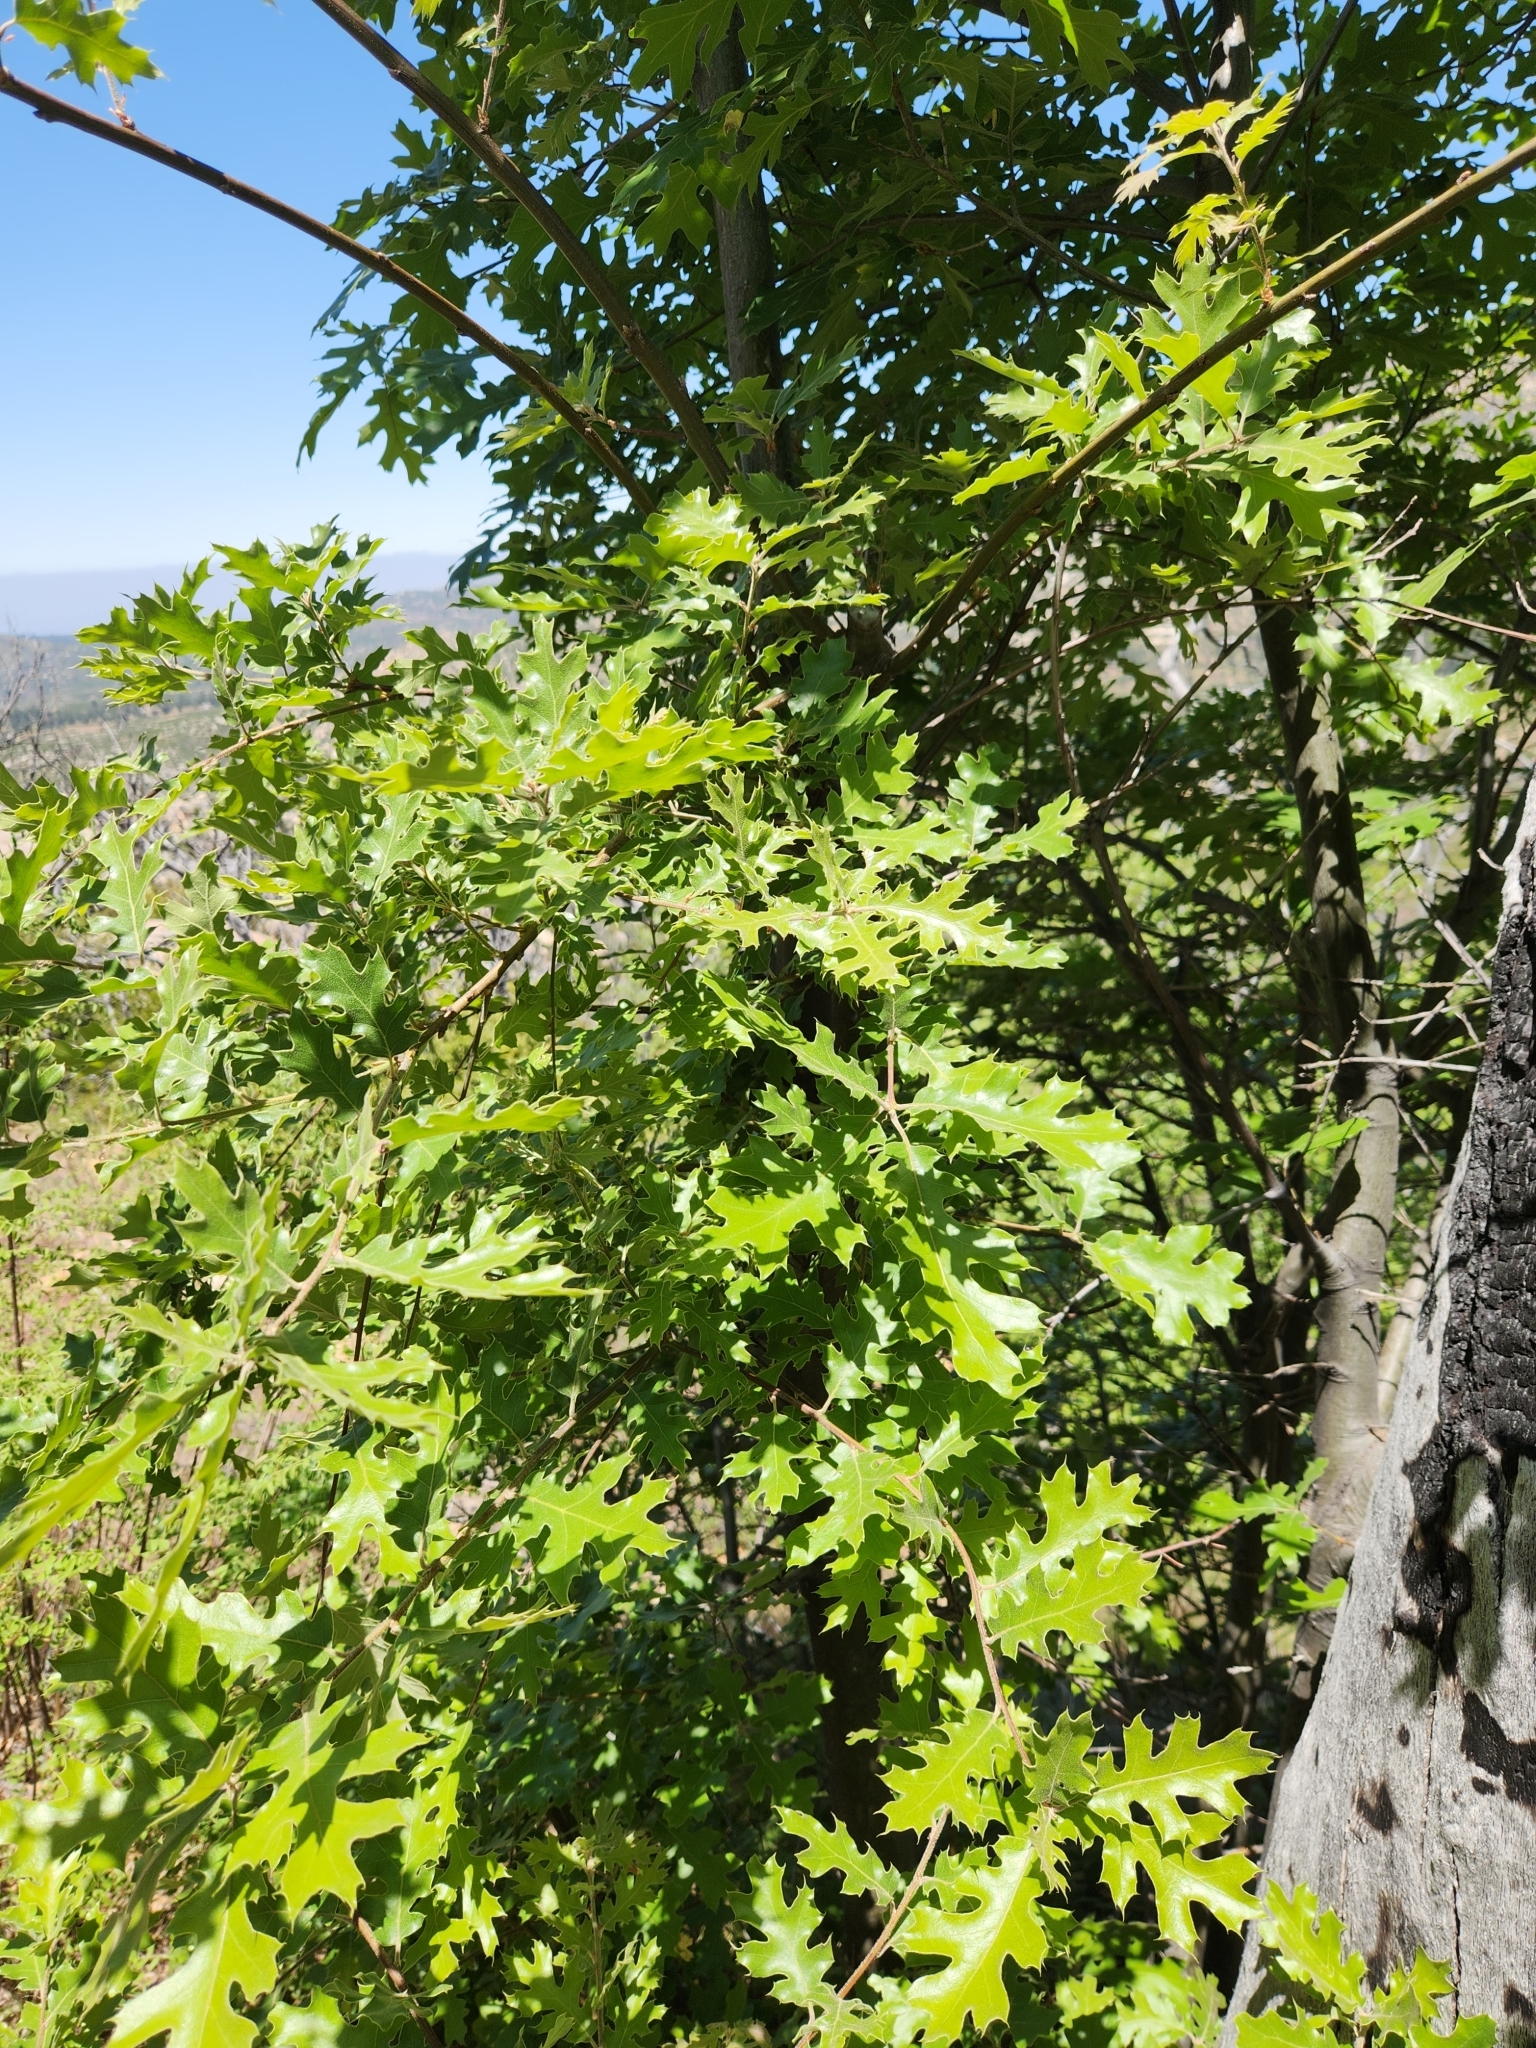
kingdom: Plantae
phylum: Tracheophyta
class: Magnoliopsida
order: Fagales
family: Fagaceae
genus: Quercus
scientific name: Quercus kelloggii
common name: California black oak
